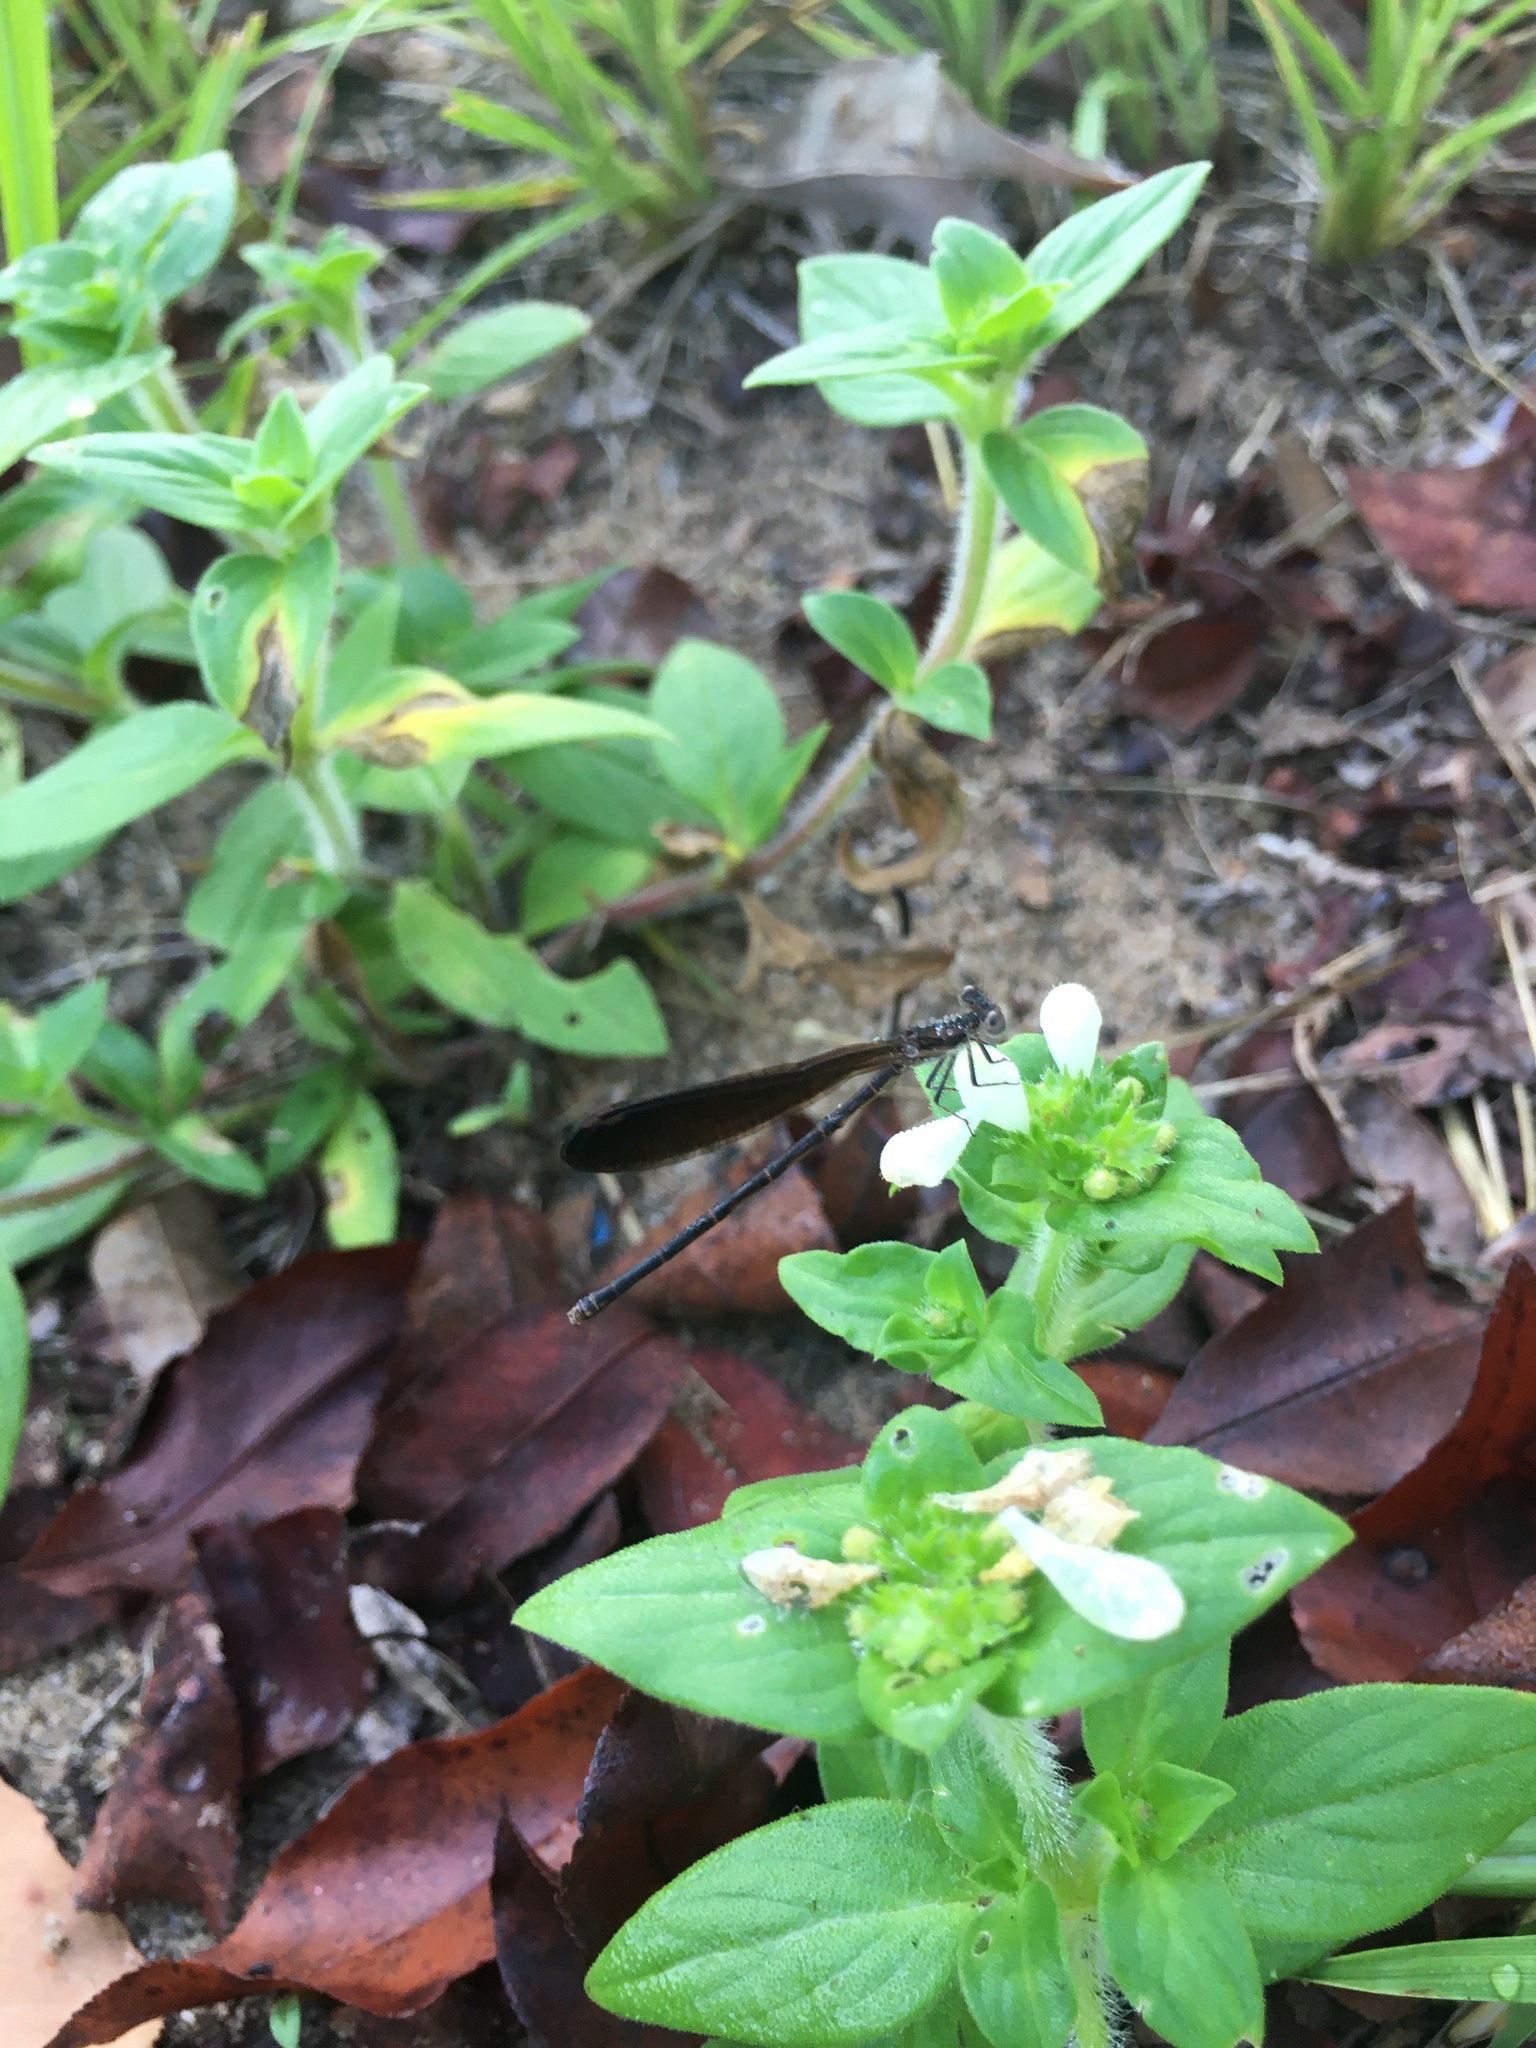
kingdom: Animalia
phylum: Arthropoda
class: Insecta
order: Odonata
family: Coenagrionidae
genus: Argia
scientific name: Argia fumipennis
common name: Variable dancer
